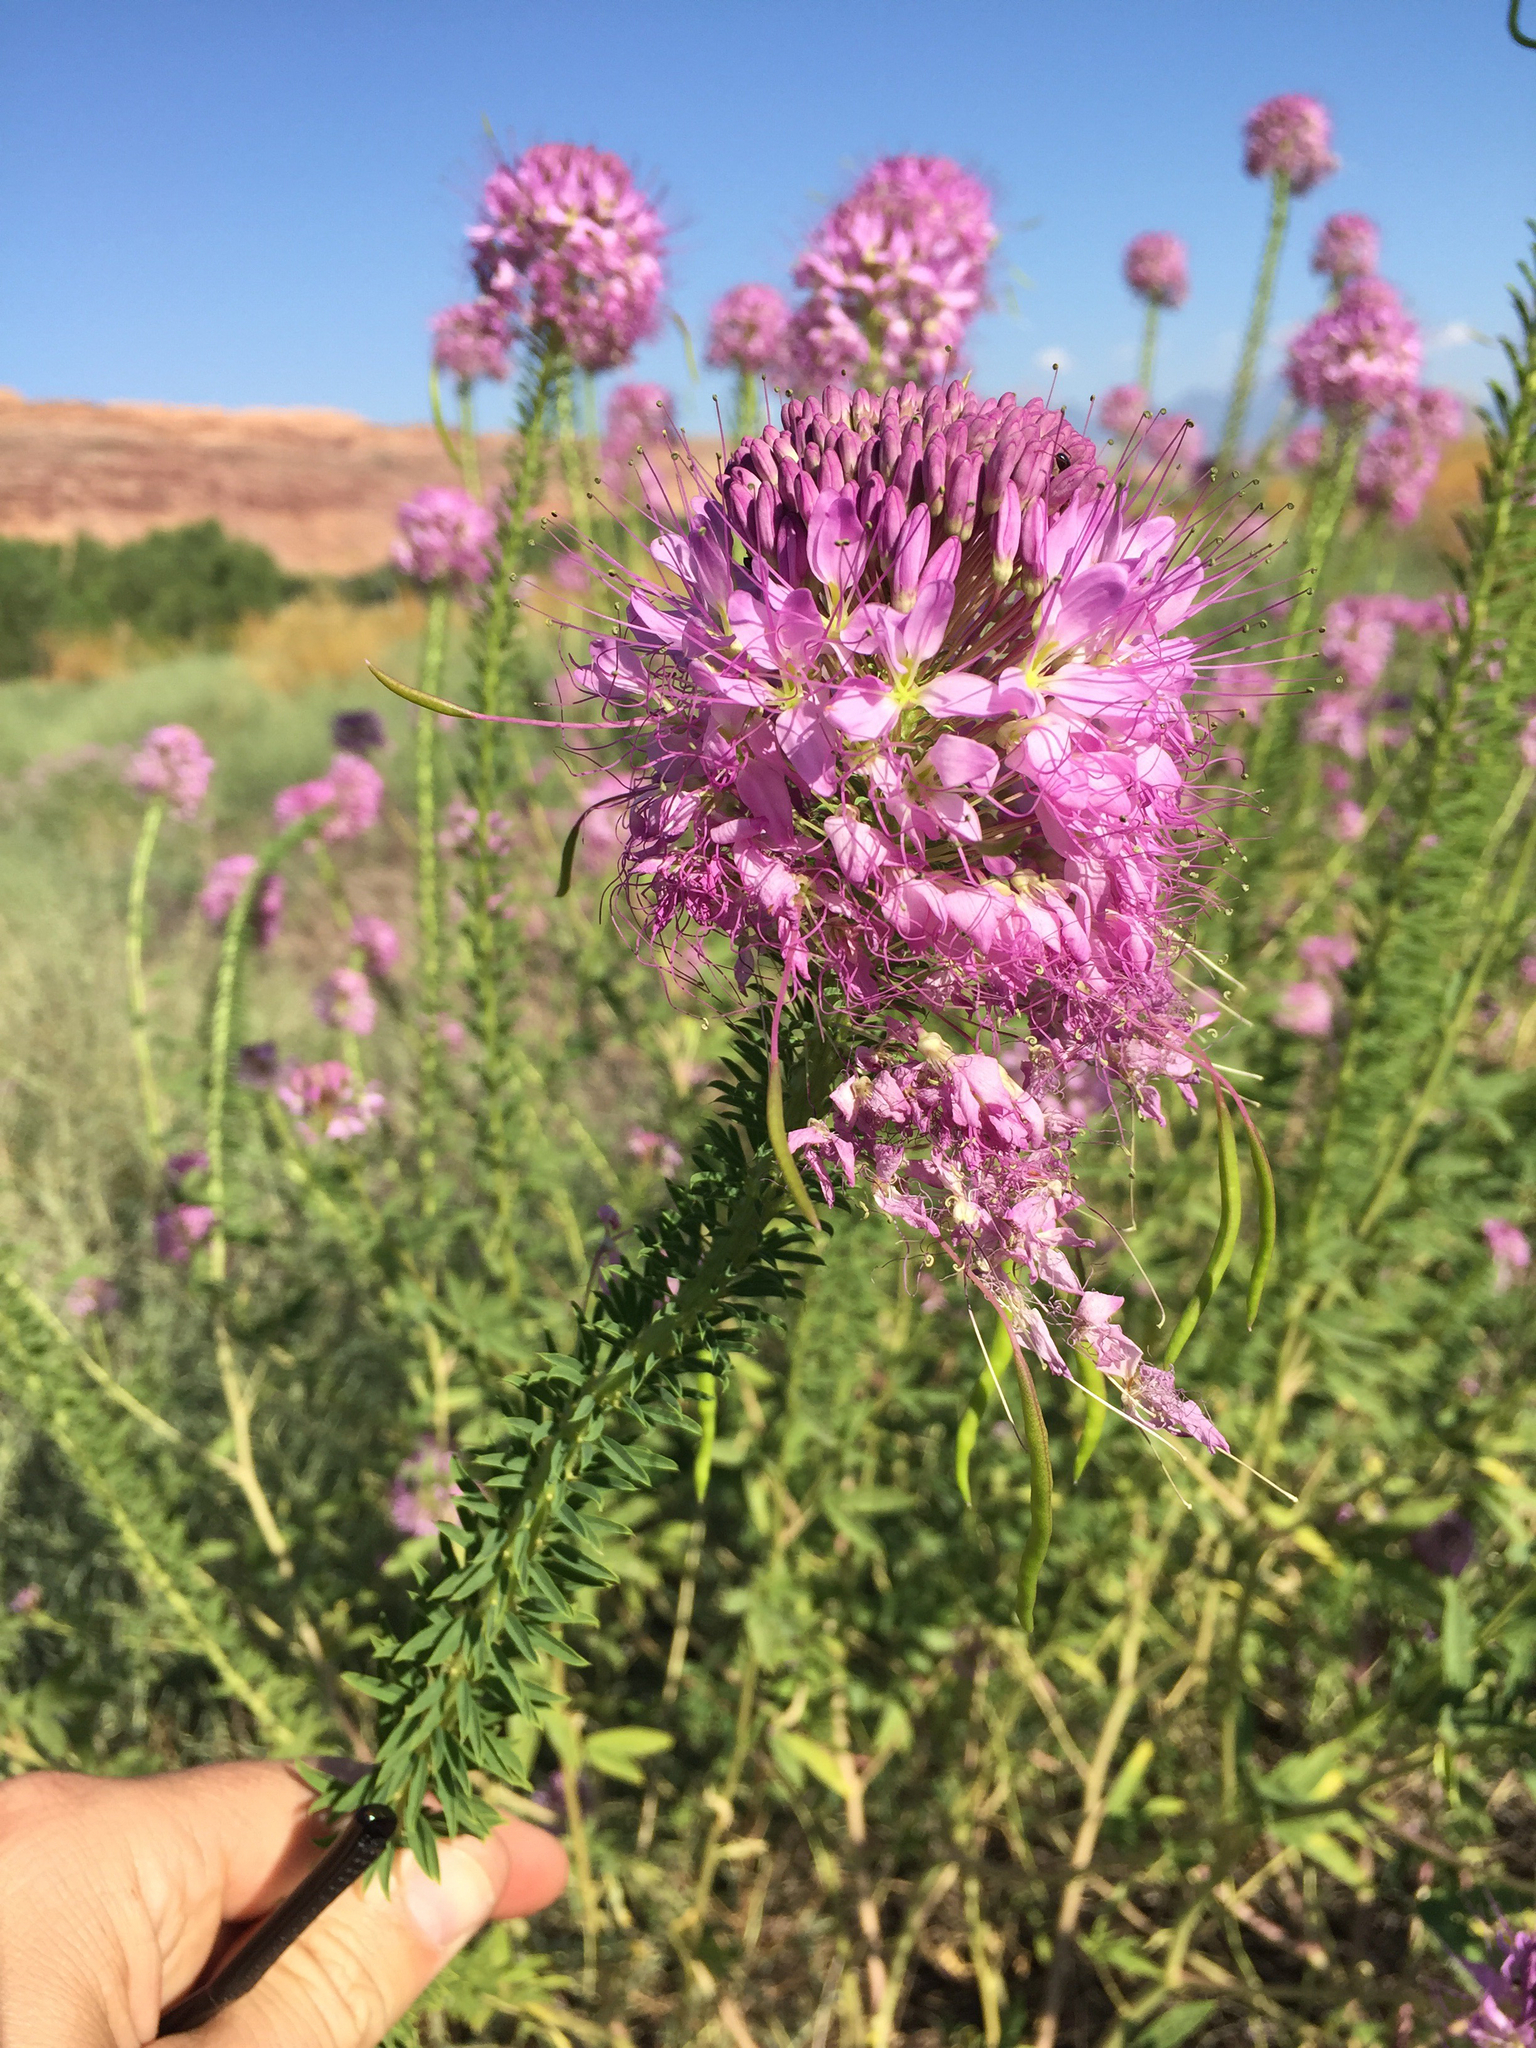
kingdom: Plantae
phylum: Tracheophyta
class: Magnoliopsida
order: Brassicales
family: Cleomaceae
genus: Cleomella
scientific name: Cleomella serrulata
